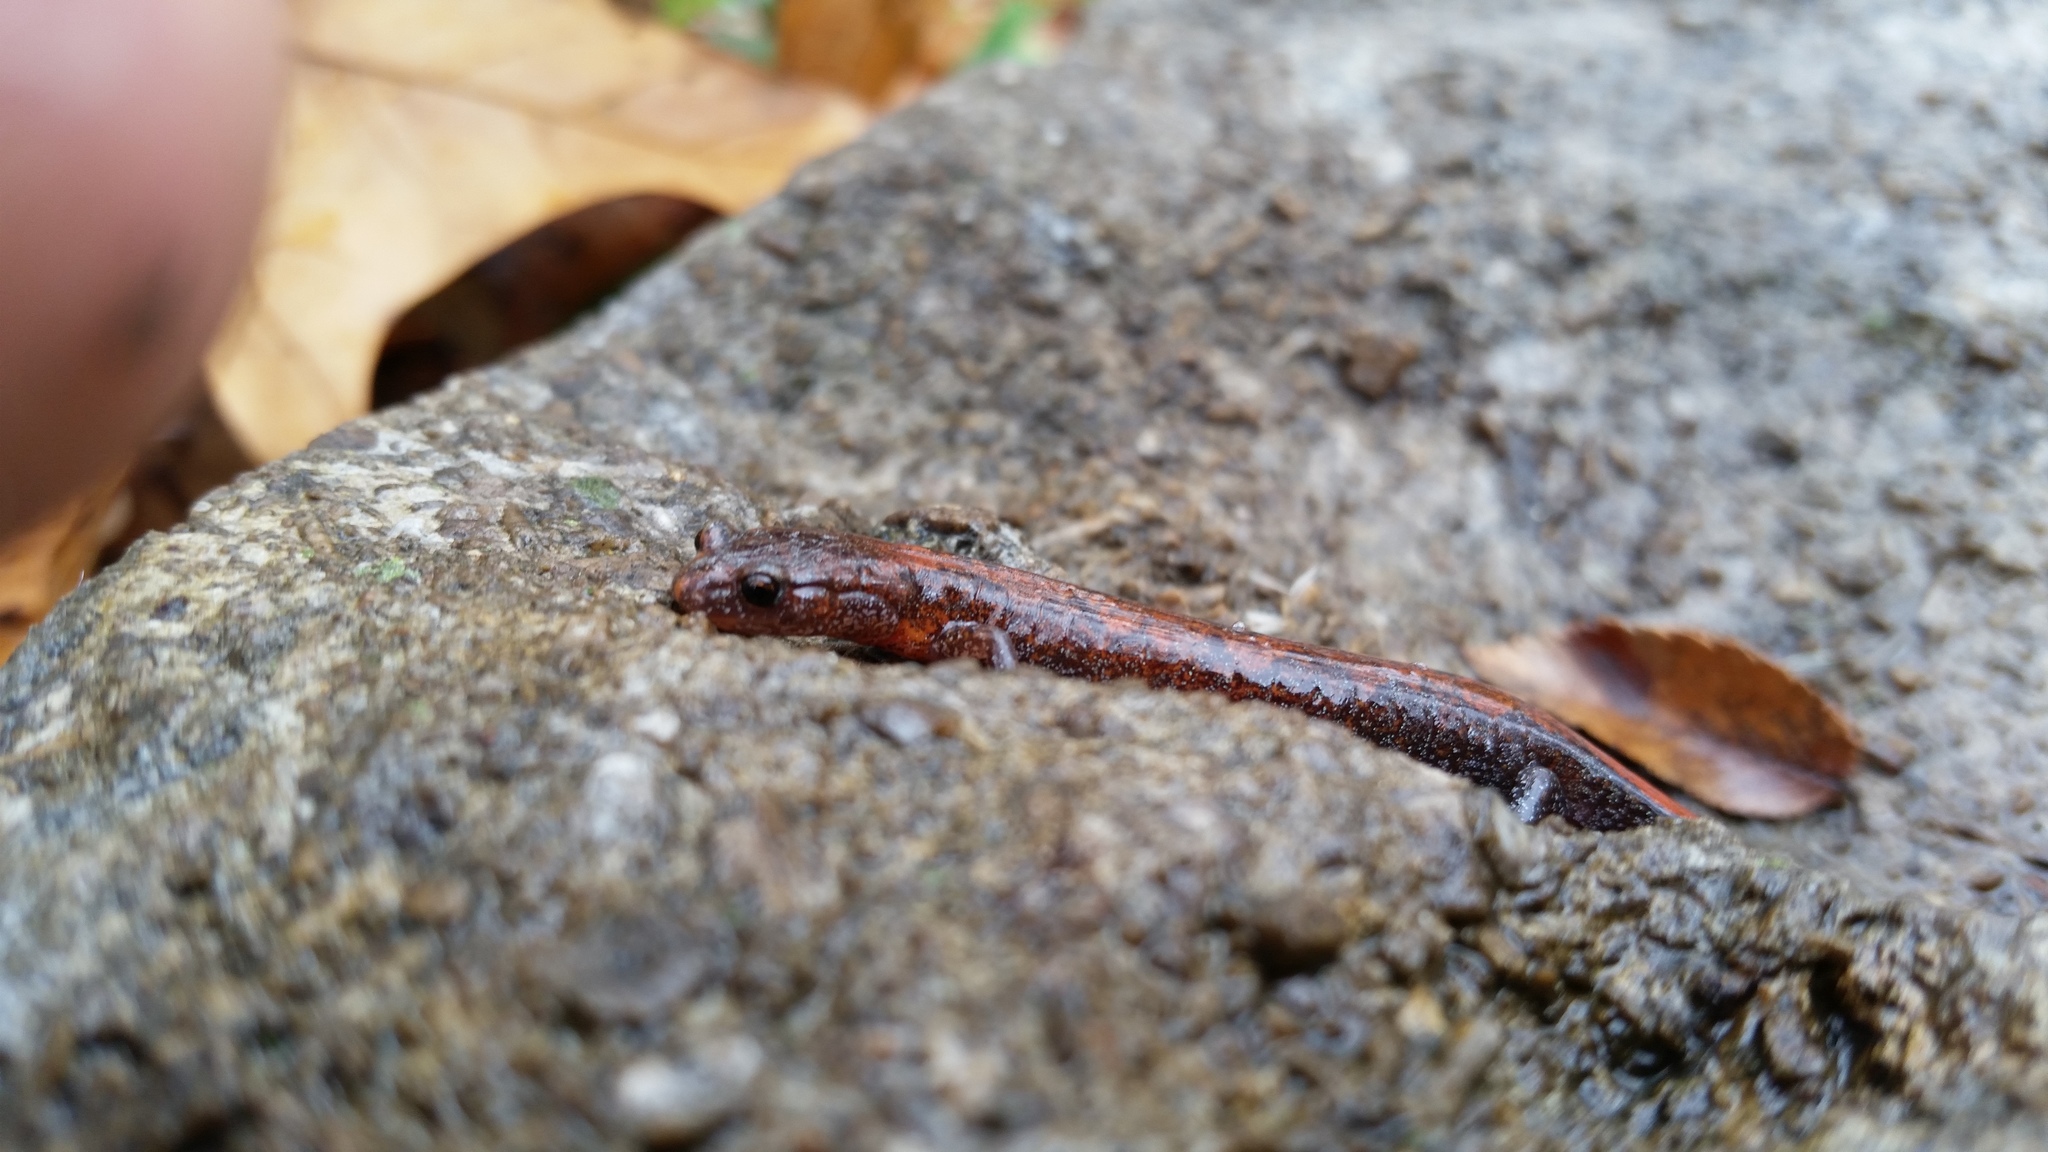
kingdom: Animalia
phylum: Chordata
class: Amphibia
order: Caudata
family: Plethodontidae
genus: Plethodon
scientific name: Plethodon dorsalis
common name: Northern zigzag salamander
